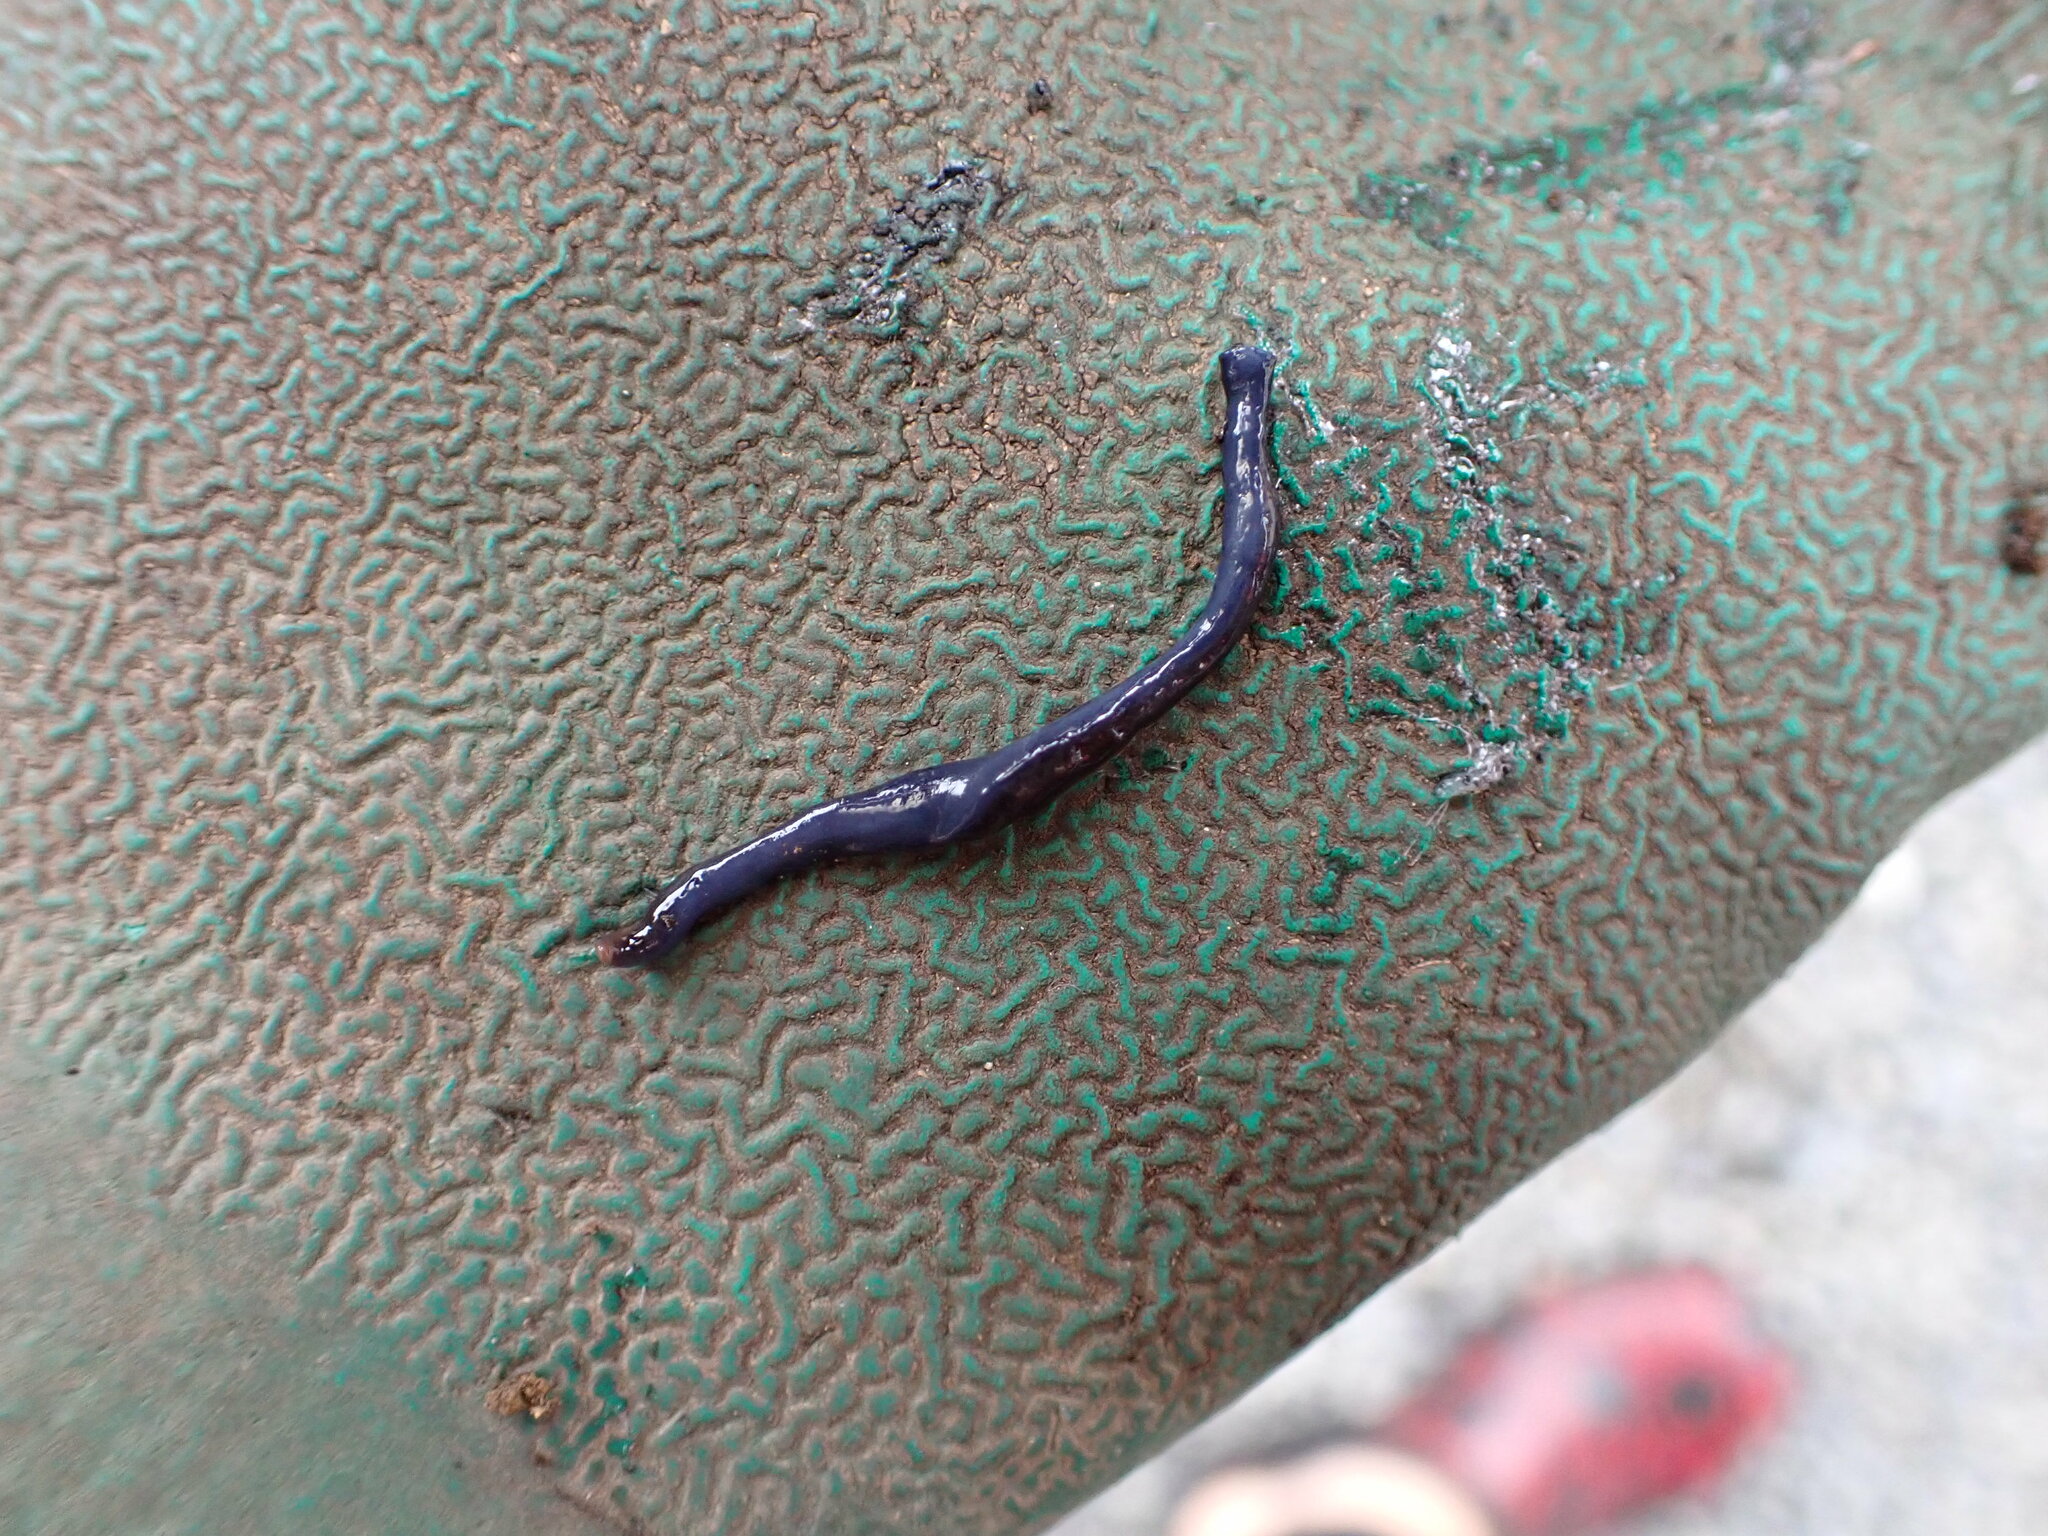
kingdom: Animalia
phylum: Platyhelminthes
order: Tricladida
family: Geoplanidae
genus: Caenoplana
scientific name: Caenoplana coerulea
